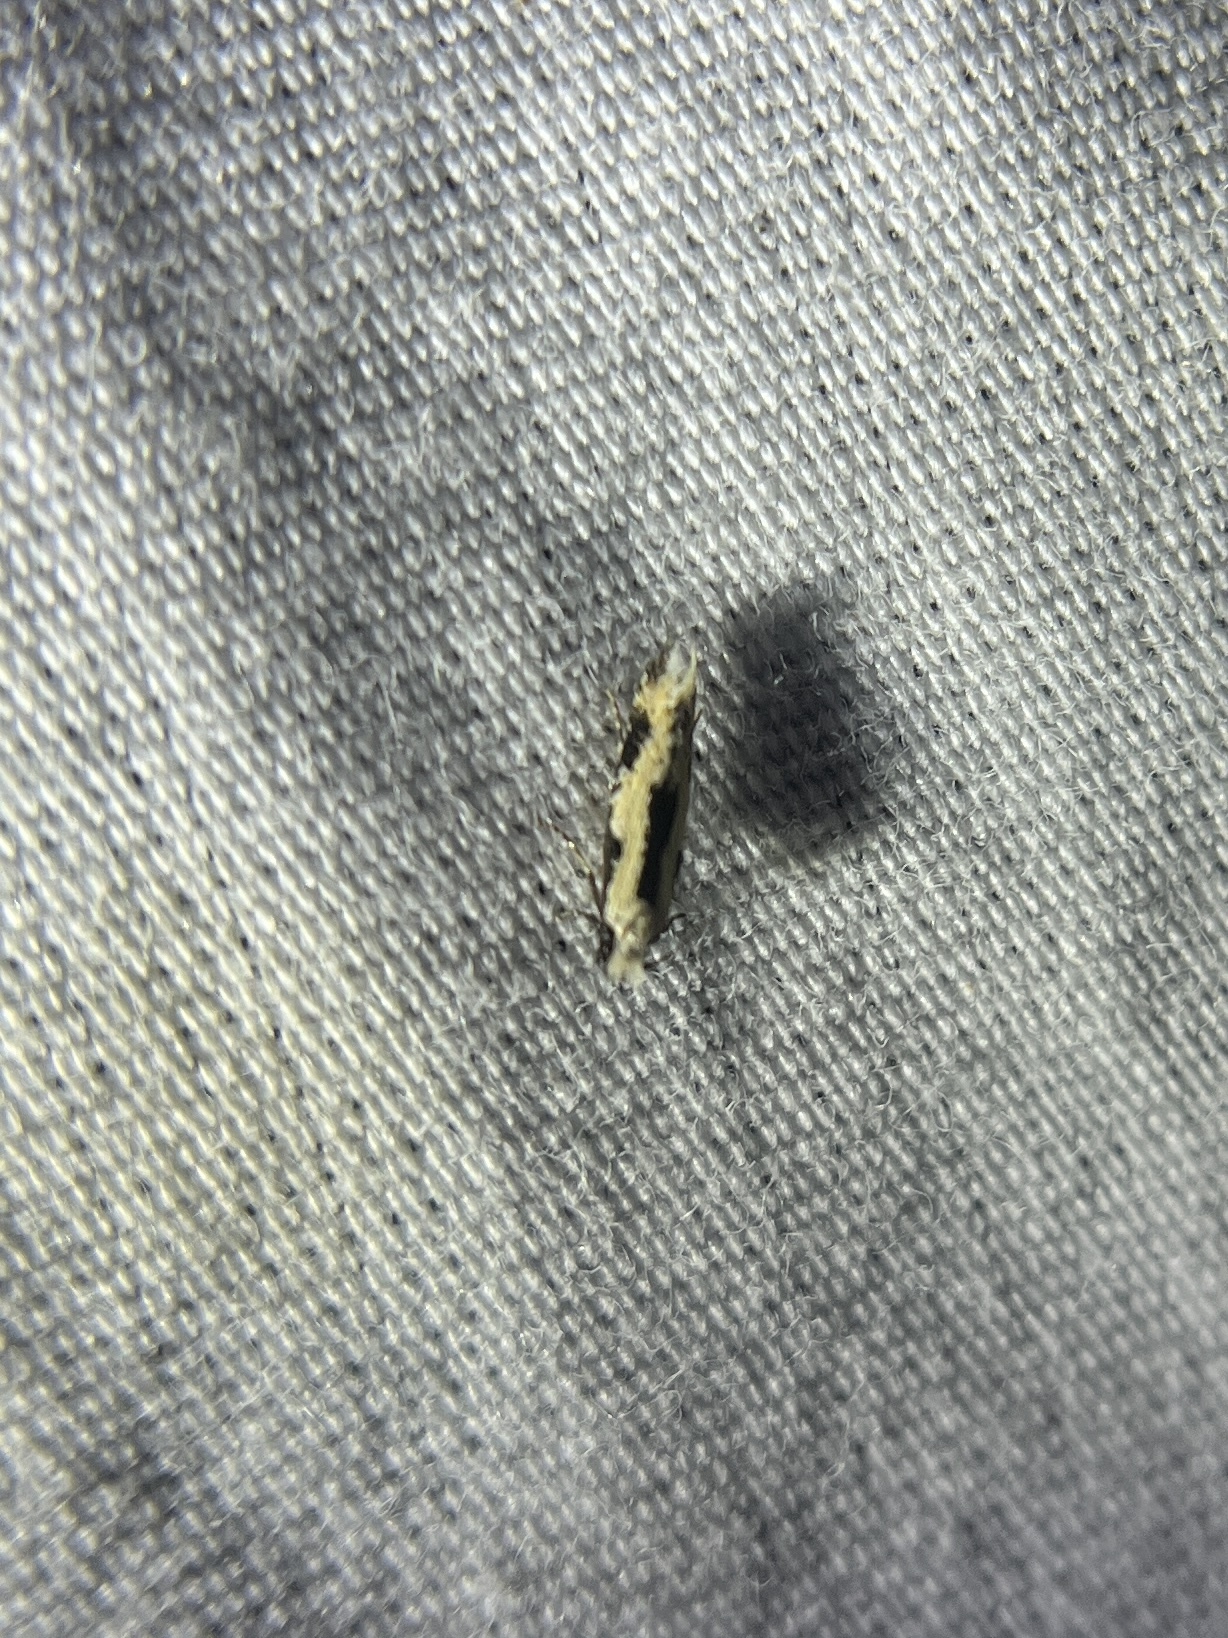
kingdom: Animalia
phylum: Arthropoda
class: Insecta
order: Lepidoptera
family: Meessiidae
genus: Mea
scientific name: Mea bipunctella
